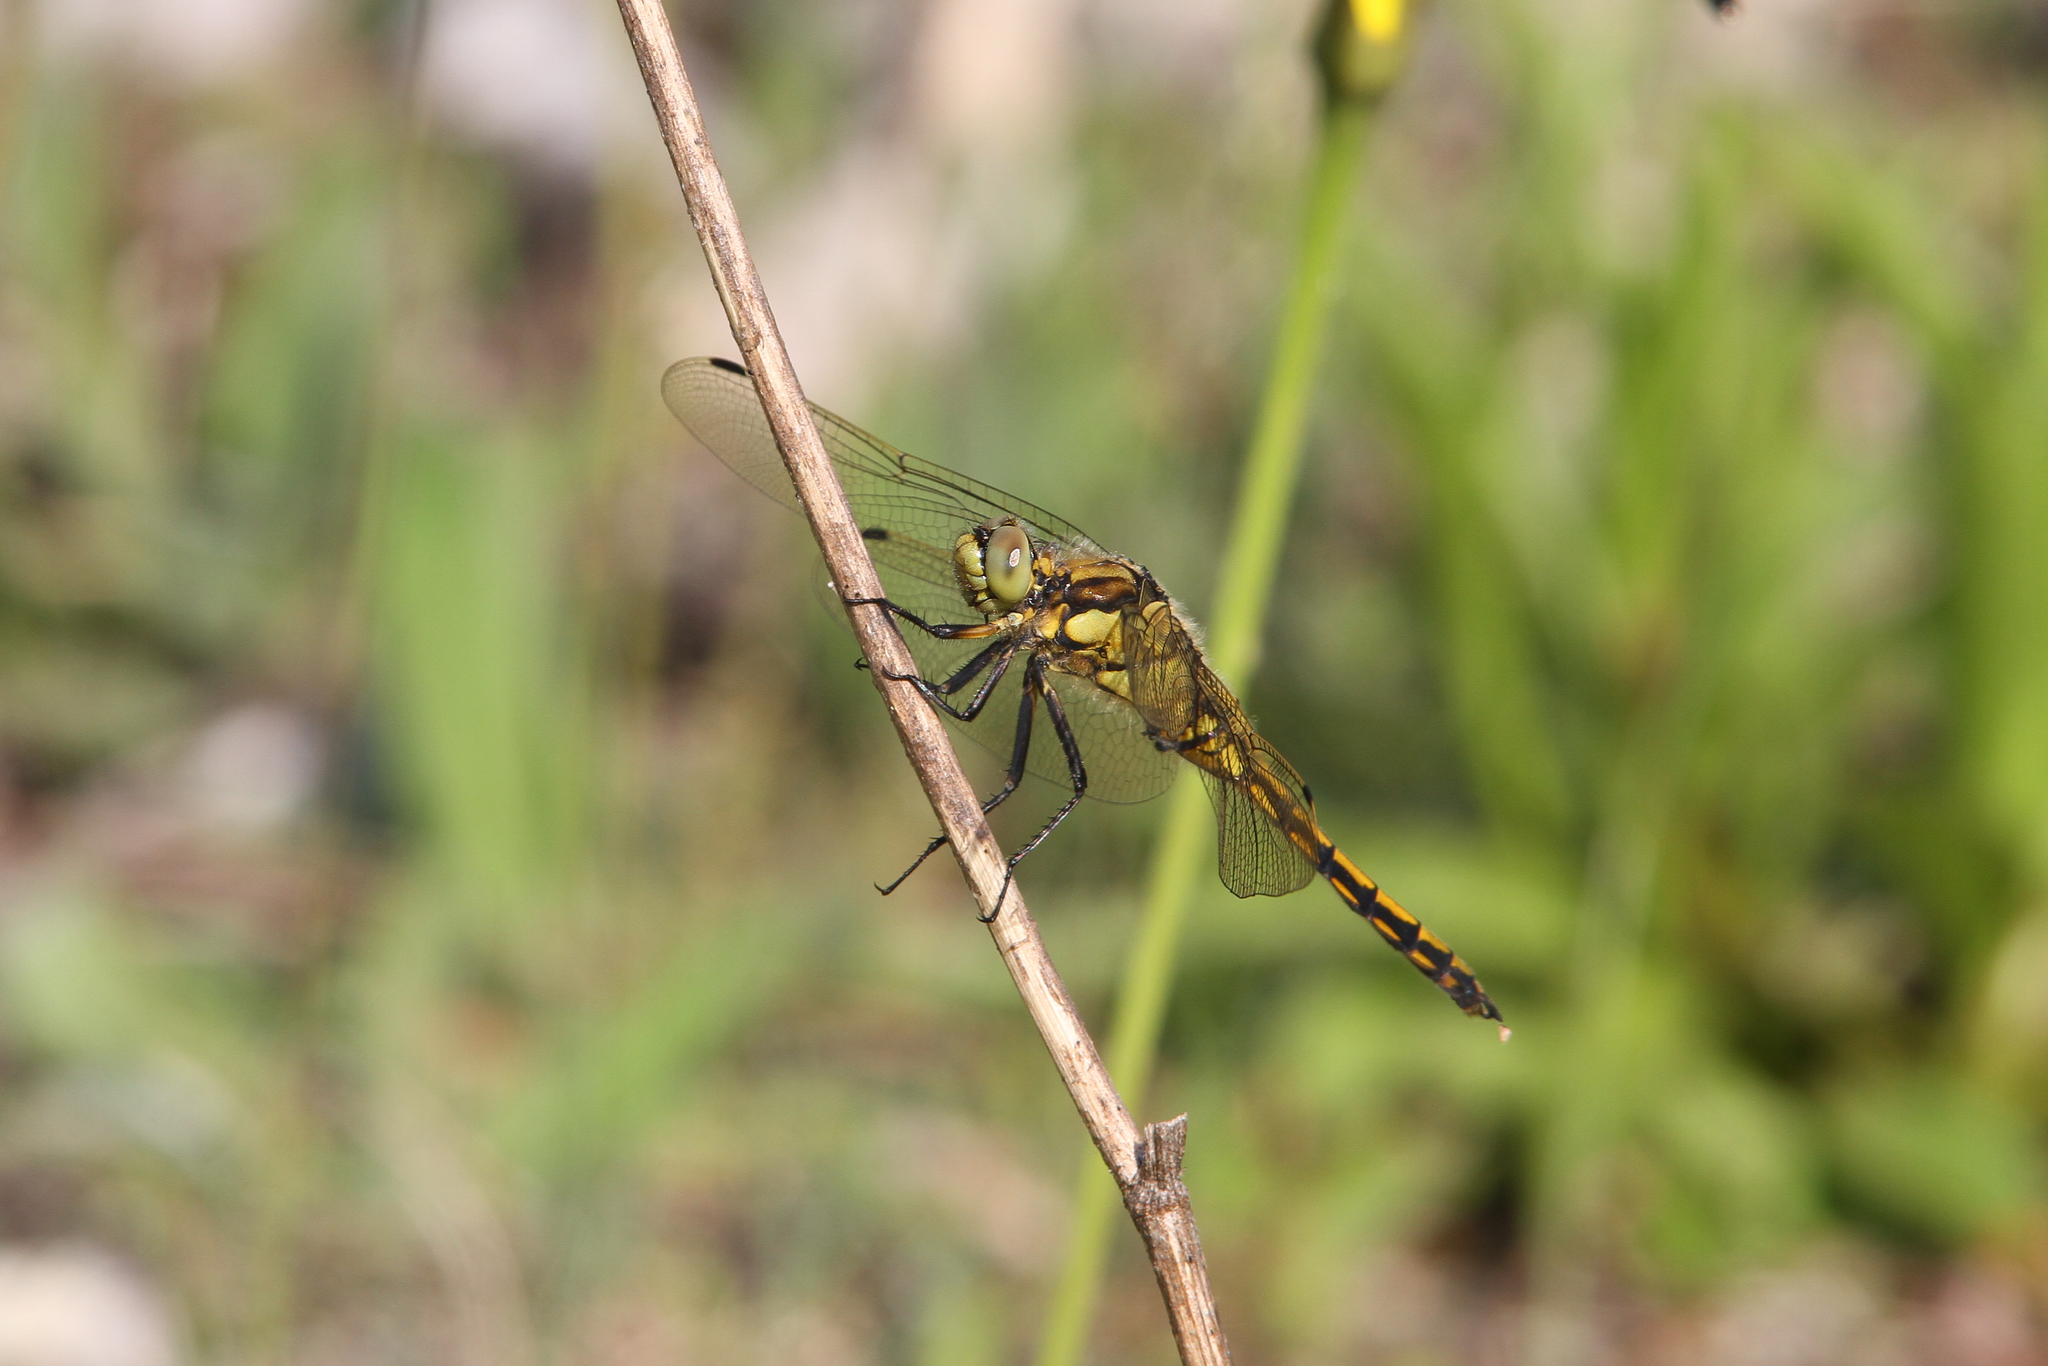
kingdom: Animalia
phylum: Arthropoda
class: Insecta
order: Odonata
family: Libellulidae
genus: Orthetrum
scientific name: Orthetrum cancellatum
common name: Black-tailed skimmer
